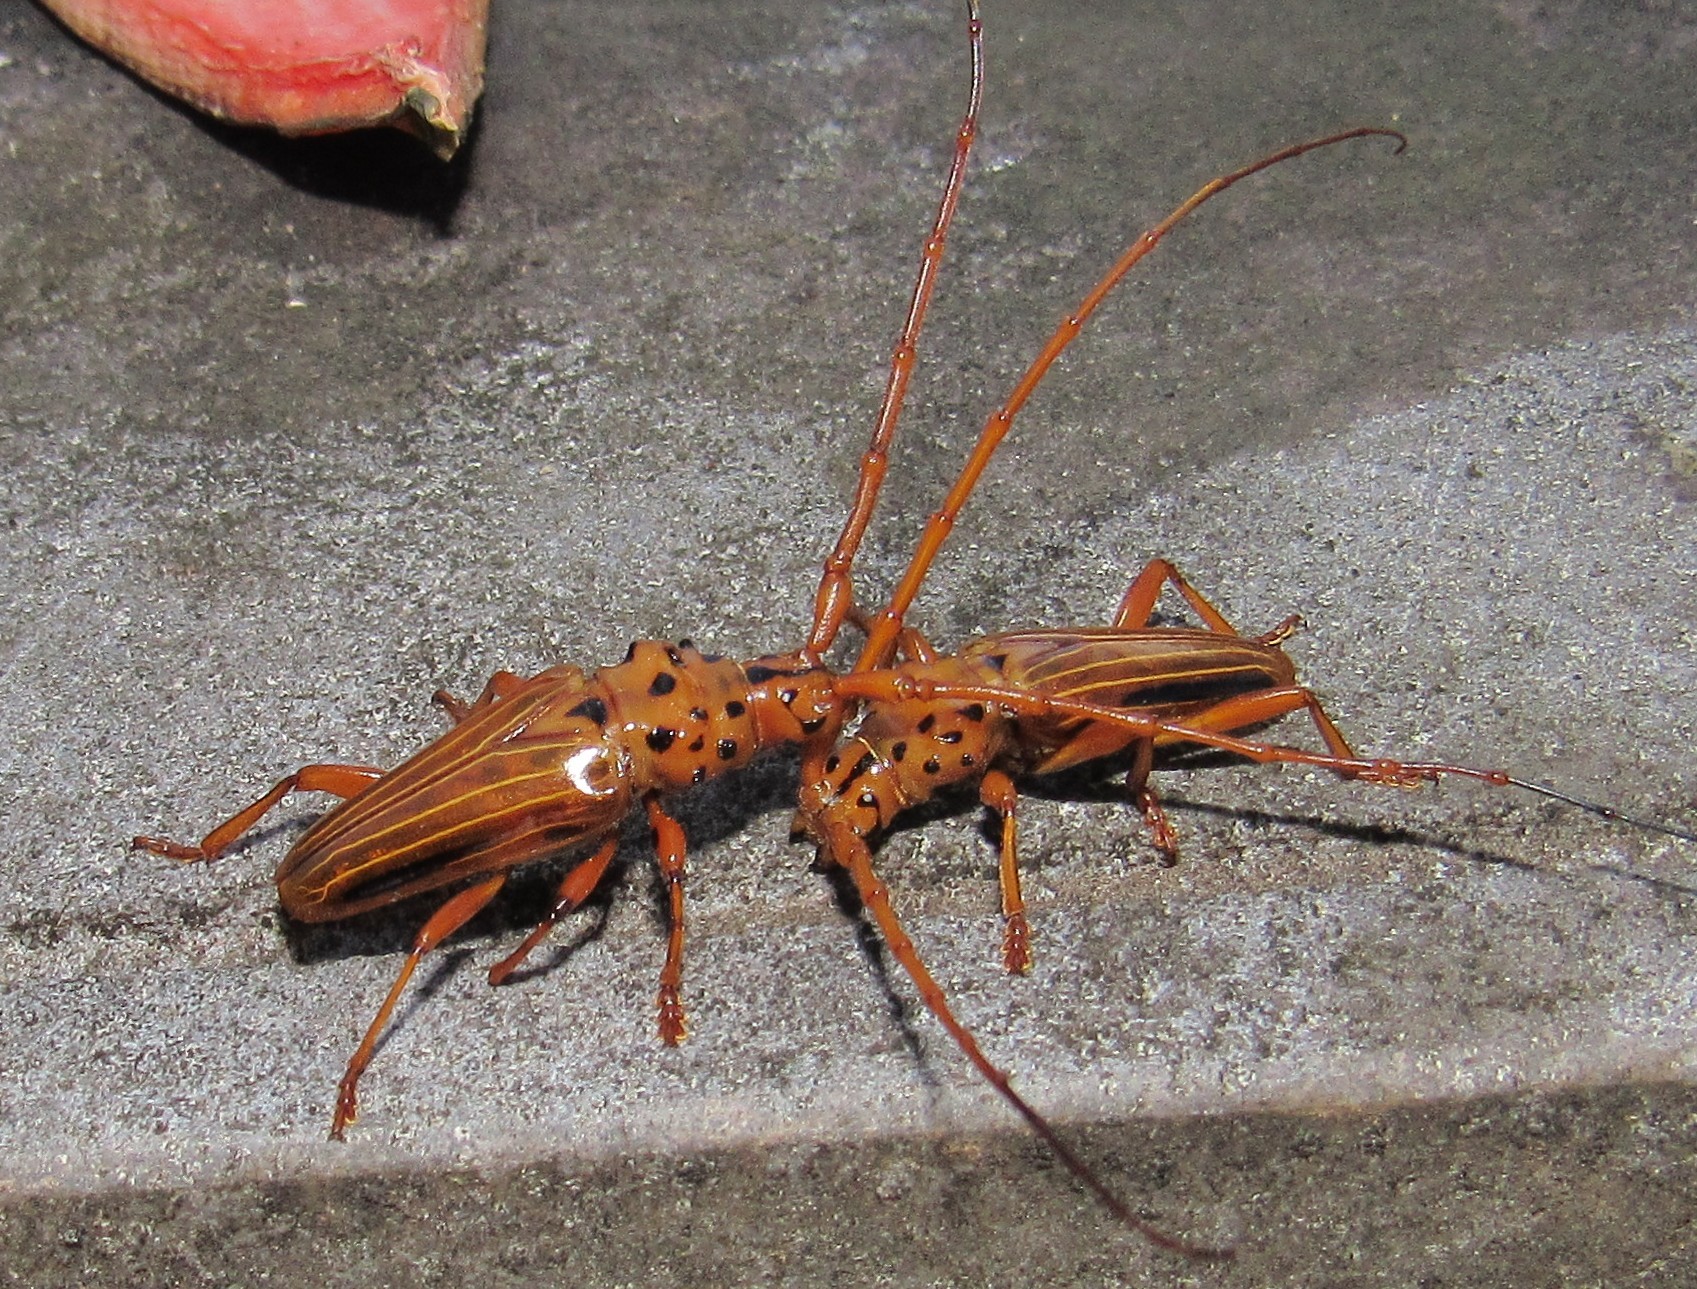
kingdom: Animalia
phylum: Arthropoda
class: Insecta
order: Coleoptera
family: Cerambycidae
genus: Chydarteres
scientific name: Chydarteres dimidiatus
